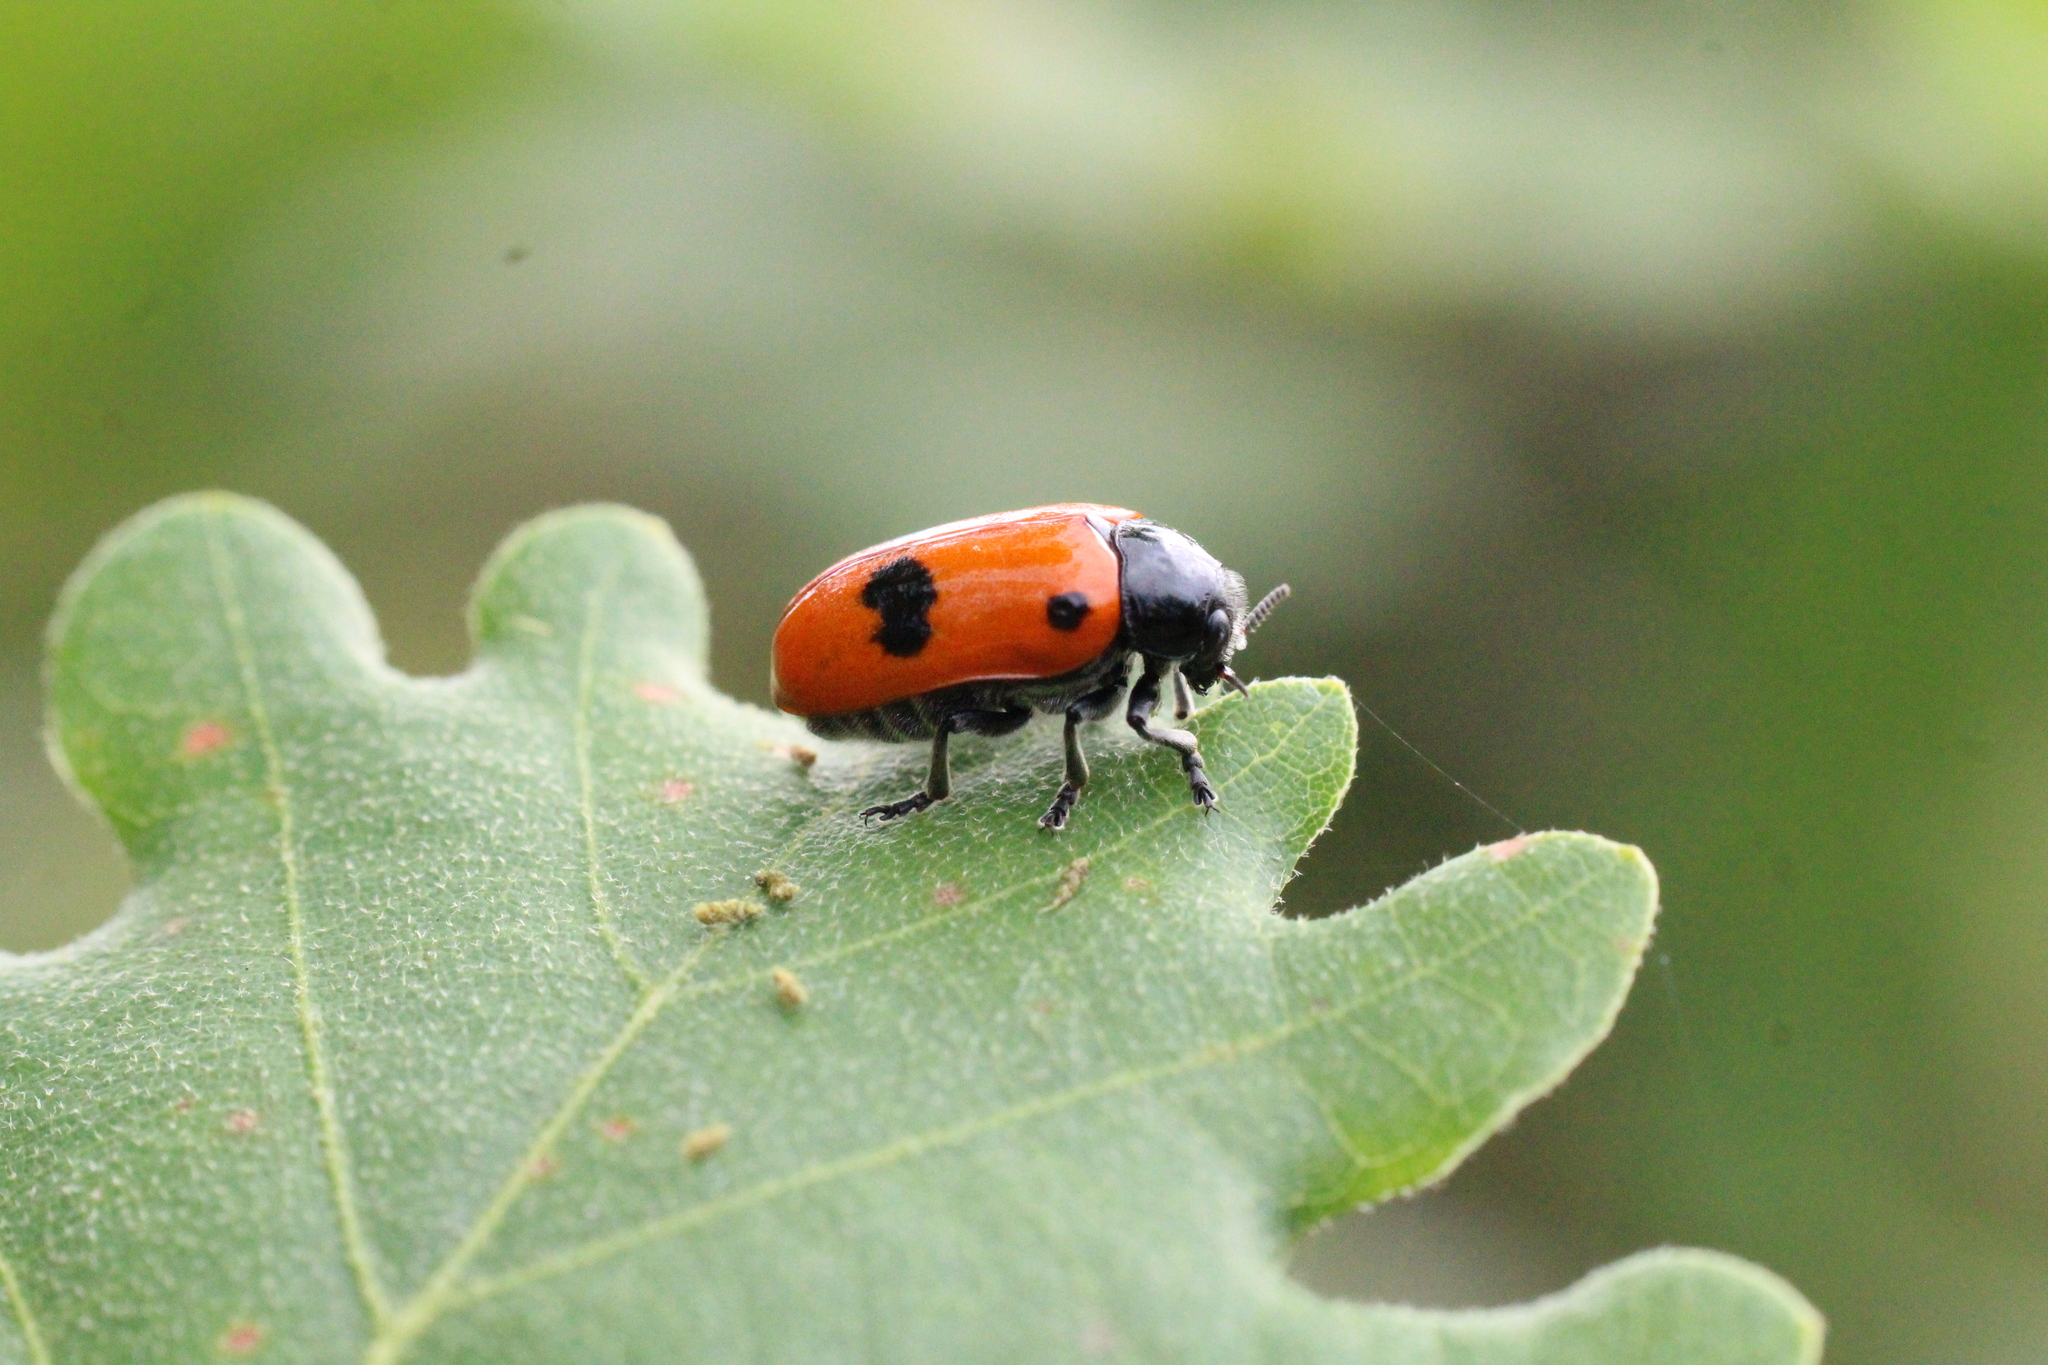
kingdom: Animalia
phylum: Arthropoda
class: Insecta
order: Coleoptera
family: Chrysomelidae
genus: Clytra
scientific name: Clytra laeviuscula
